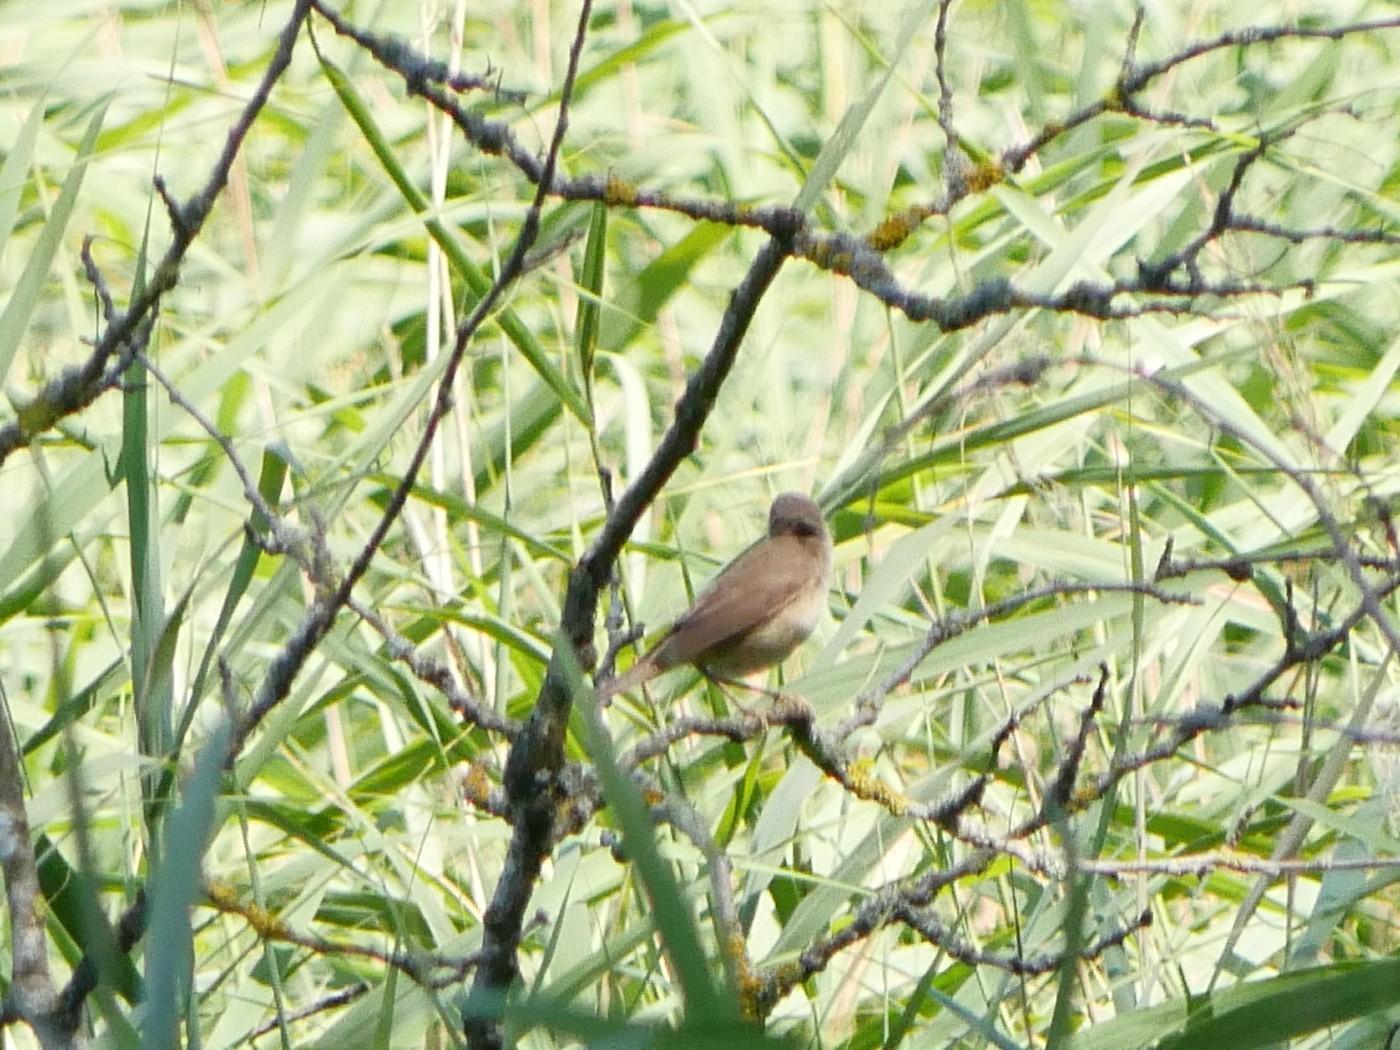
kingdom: Animalia
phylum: Chordata
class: Aves
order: Passeriformes
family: Acrocephalidae
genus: Acrocephalus
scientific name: Acrocephalus scirpaceus
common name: Eurasian reed warbler
